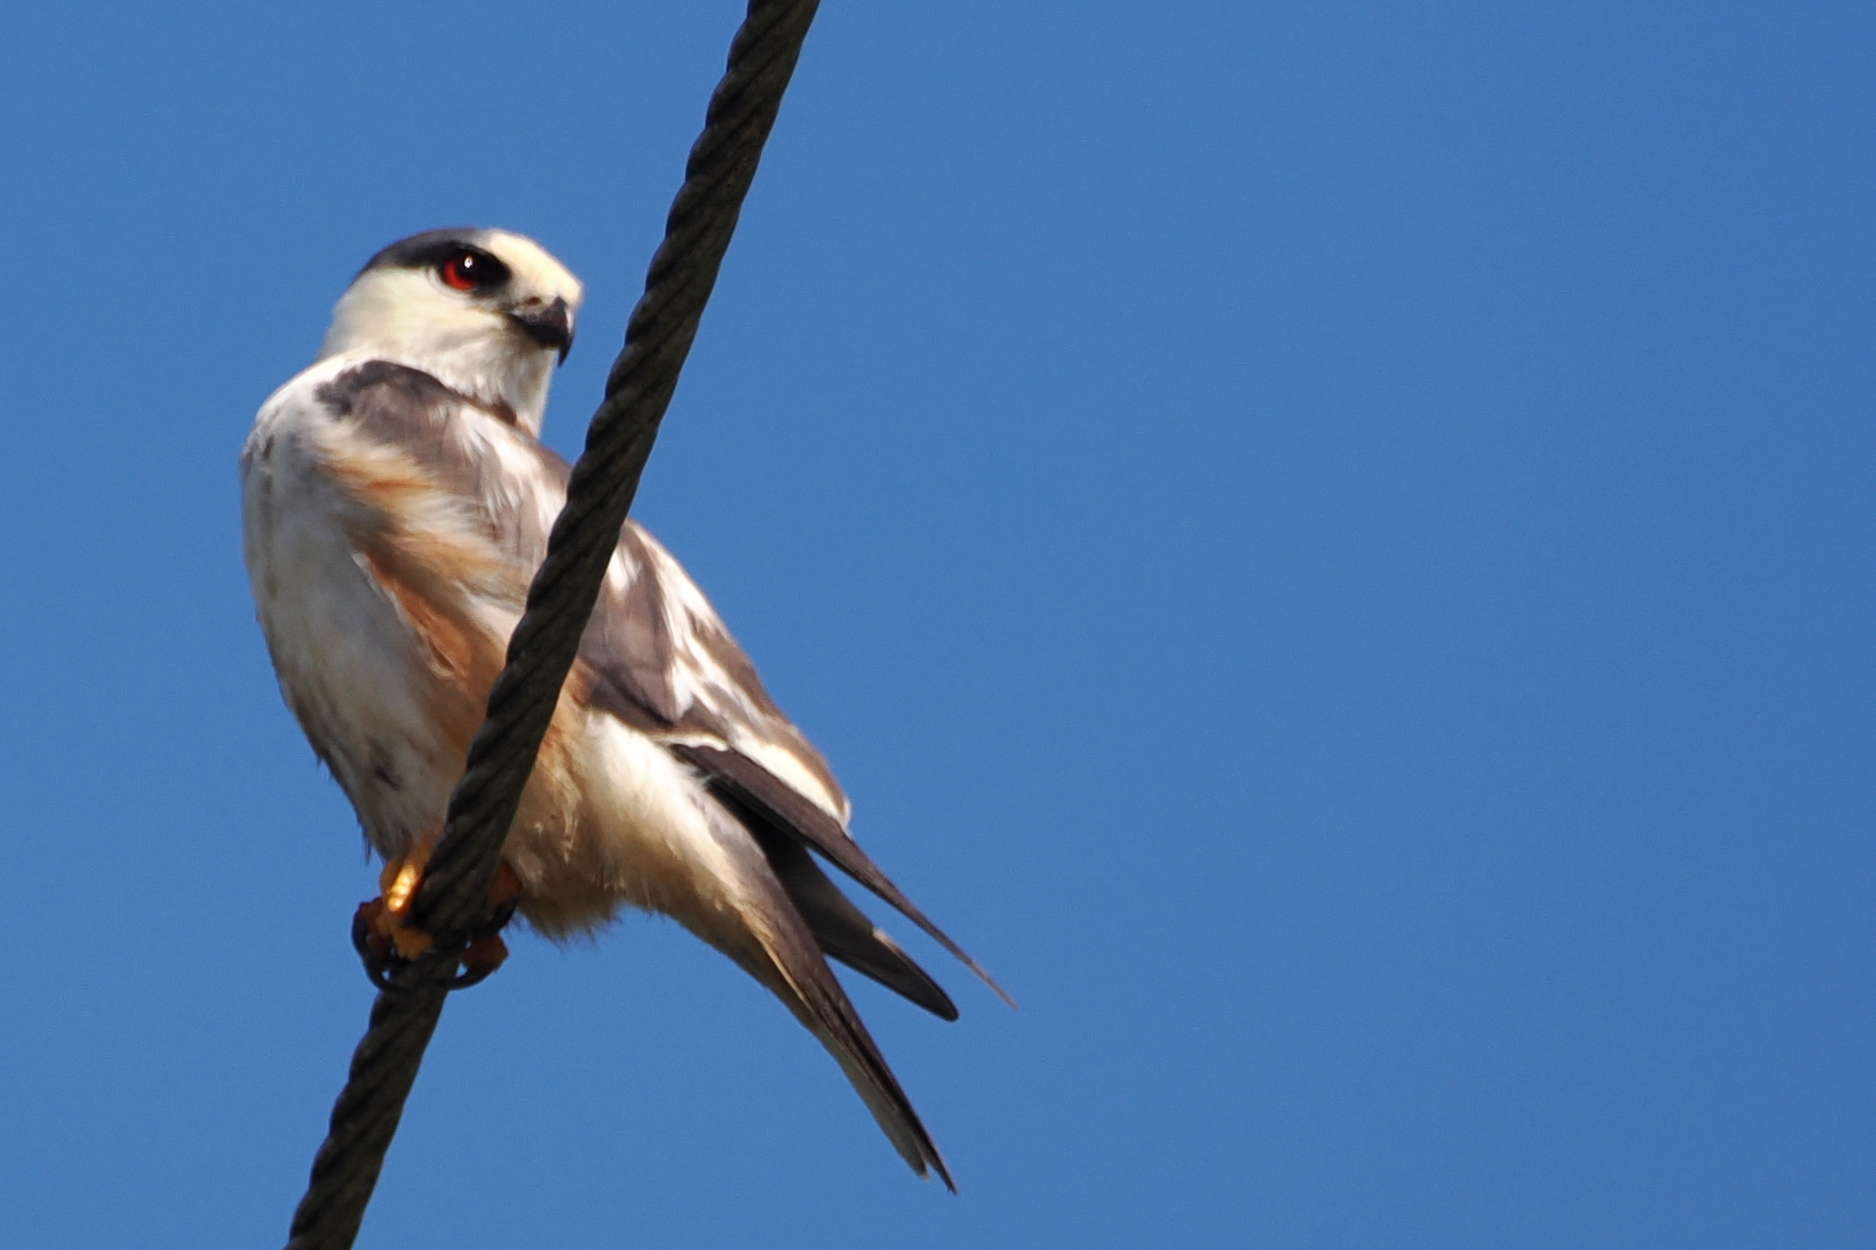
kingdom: Animalia
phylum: Chordata
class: Aves
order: Accipitriformes
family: Accipitridae
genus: Gampsonyx
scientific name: Gampsonyx swainsonii
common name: Pearl kite
